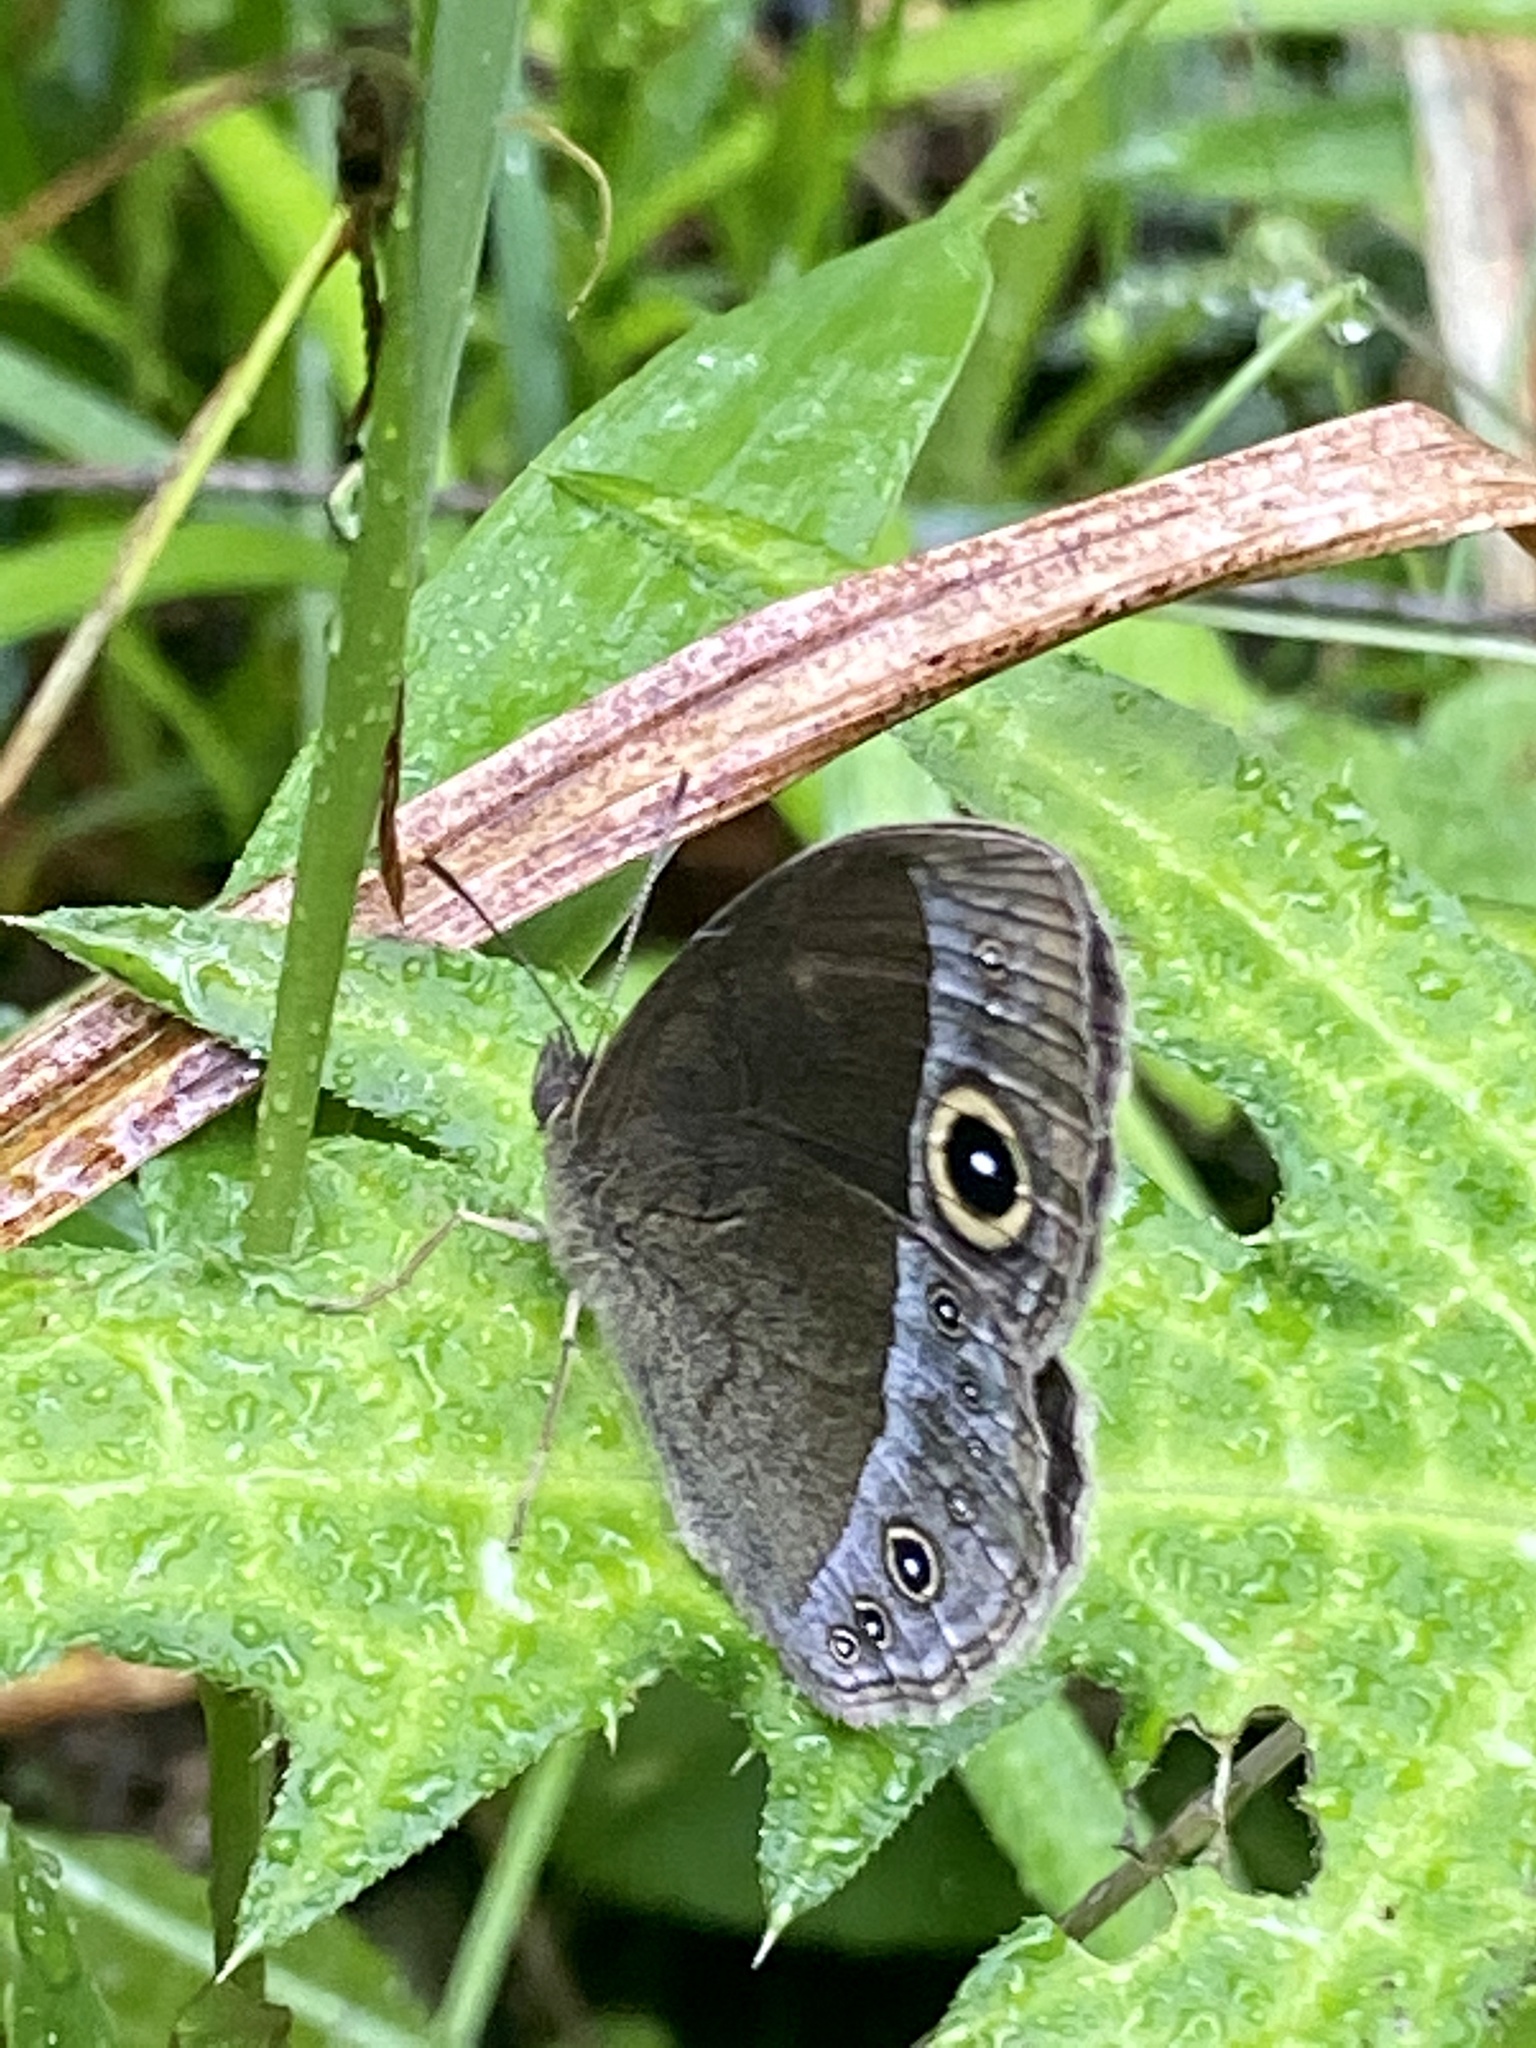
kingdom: Animalia
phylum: Arthropoda
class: Insecta
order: Lepidoptera
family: Nymphalidae
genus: Mycalesis
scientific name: Mycalesis francisca
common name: Lilacine bushbrown
